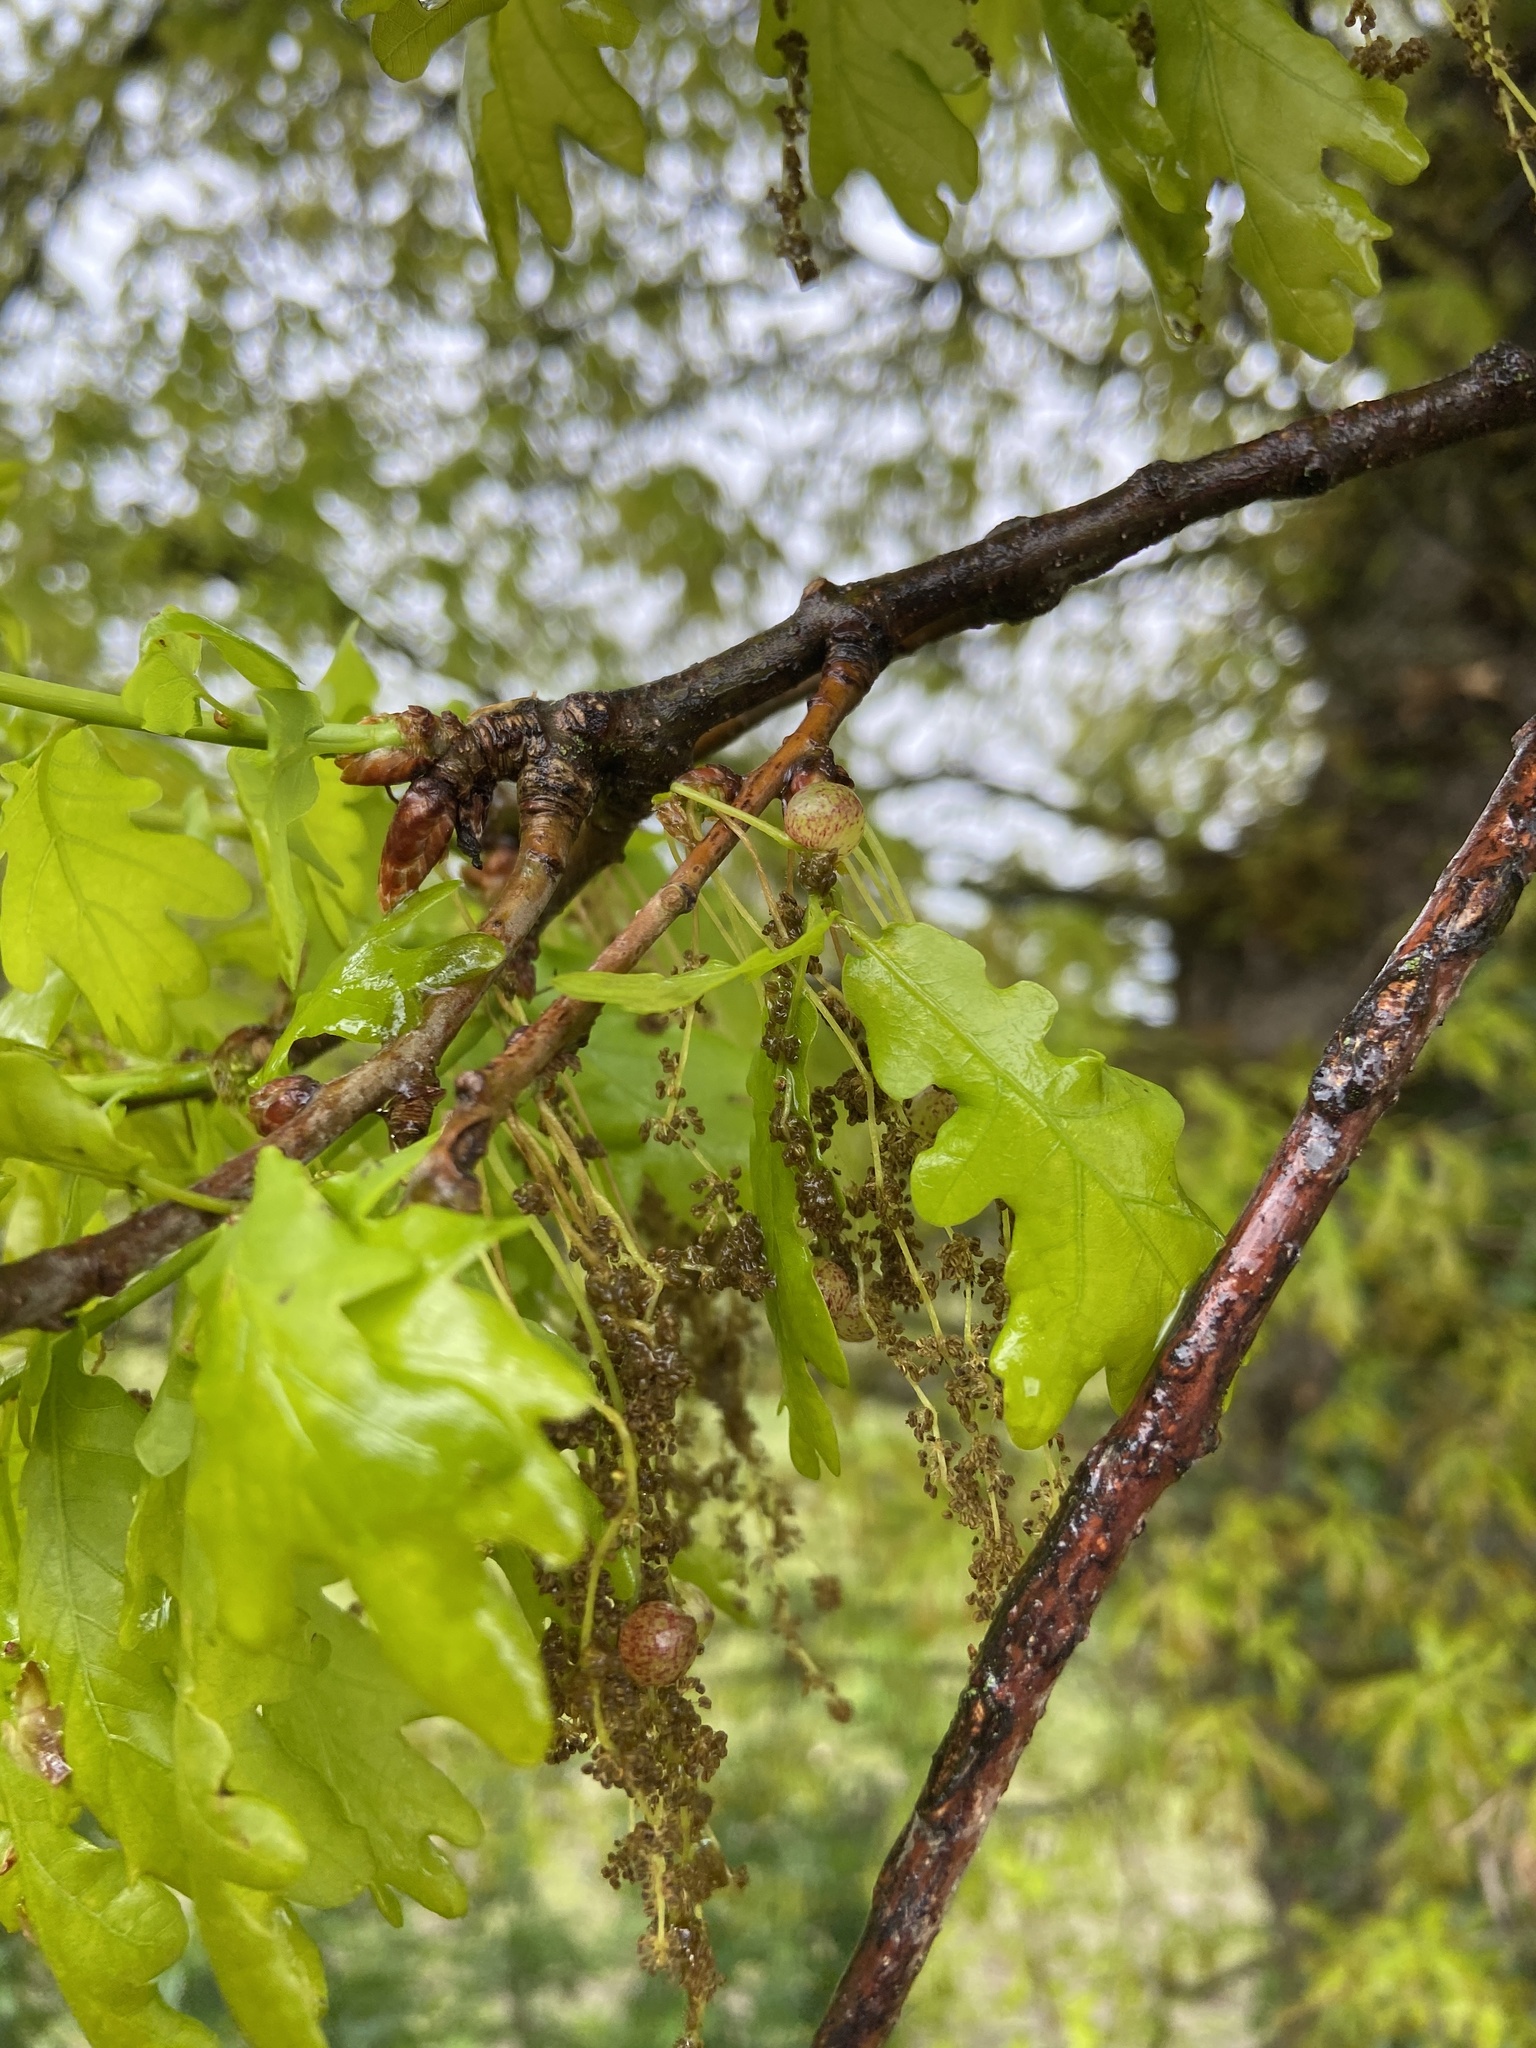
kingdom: Animalia
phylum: Arthropoda
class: Insecta
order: Hymenoptera
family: Cynipidae
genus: Neuroterus
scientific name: Neuroterus quercusbaccarum
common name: Common spangle gall
